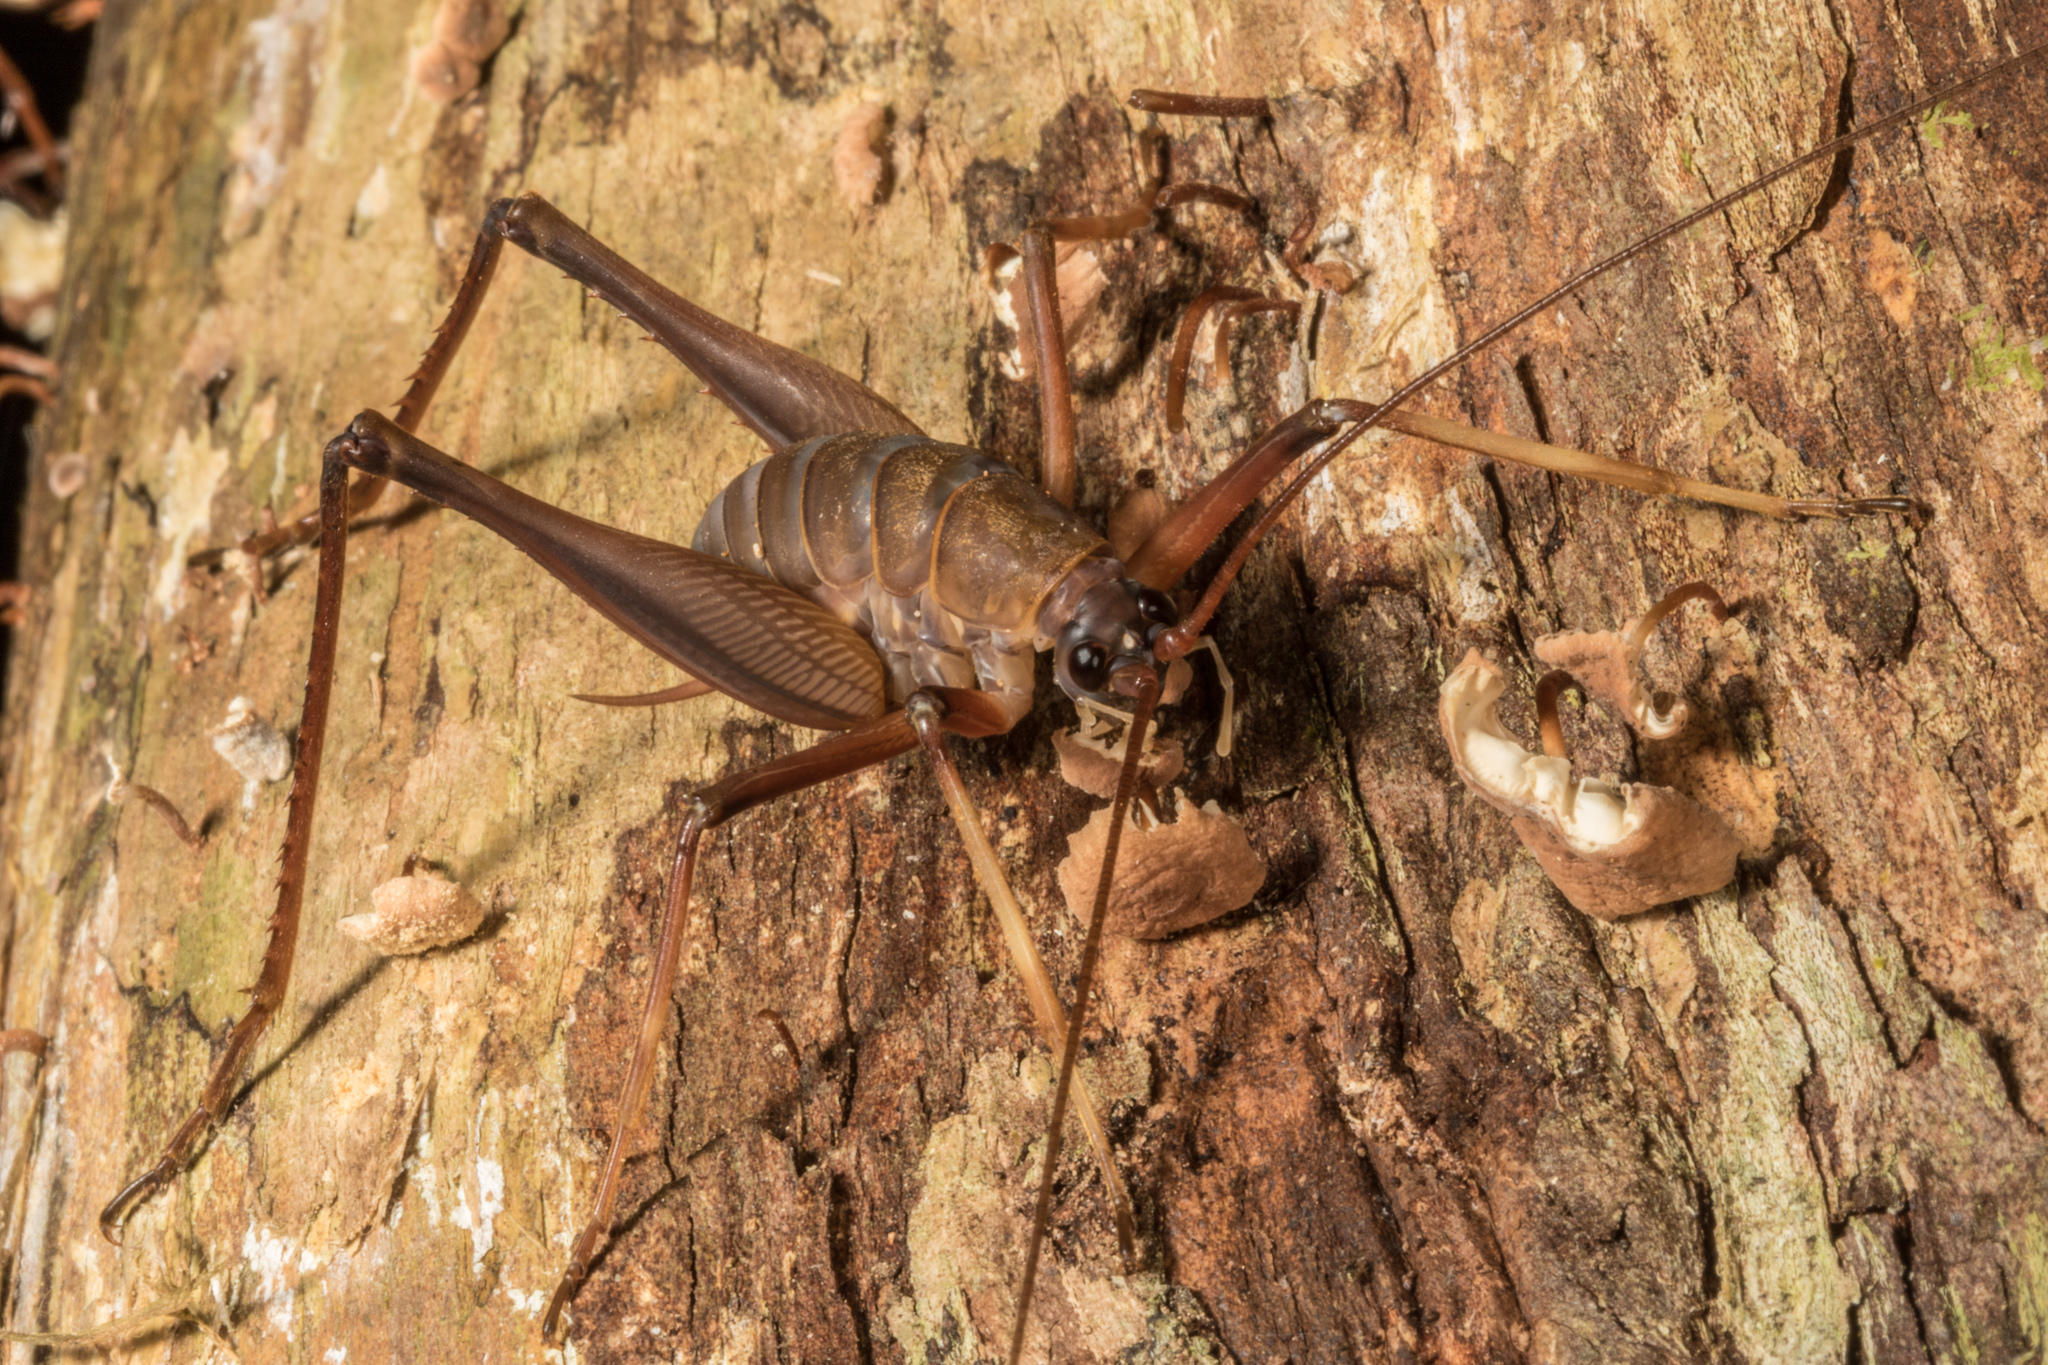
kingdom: Animalia
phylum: Arthropoda
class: Insecta
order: Orthoptera
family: Rhaphidophoridae
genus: Pachyrhamma
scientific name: Pachyrhamma longipes
